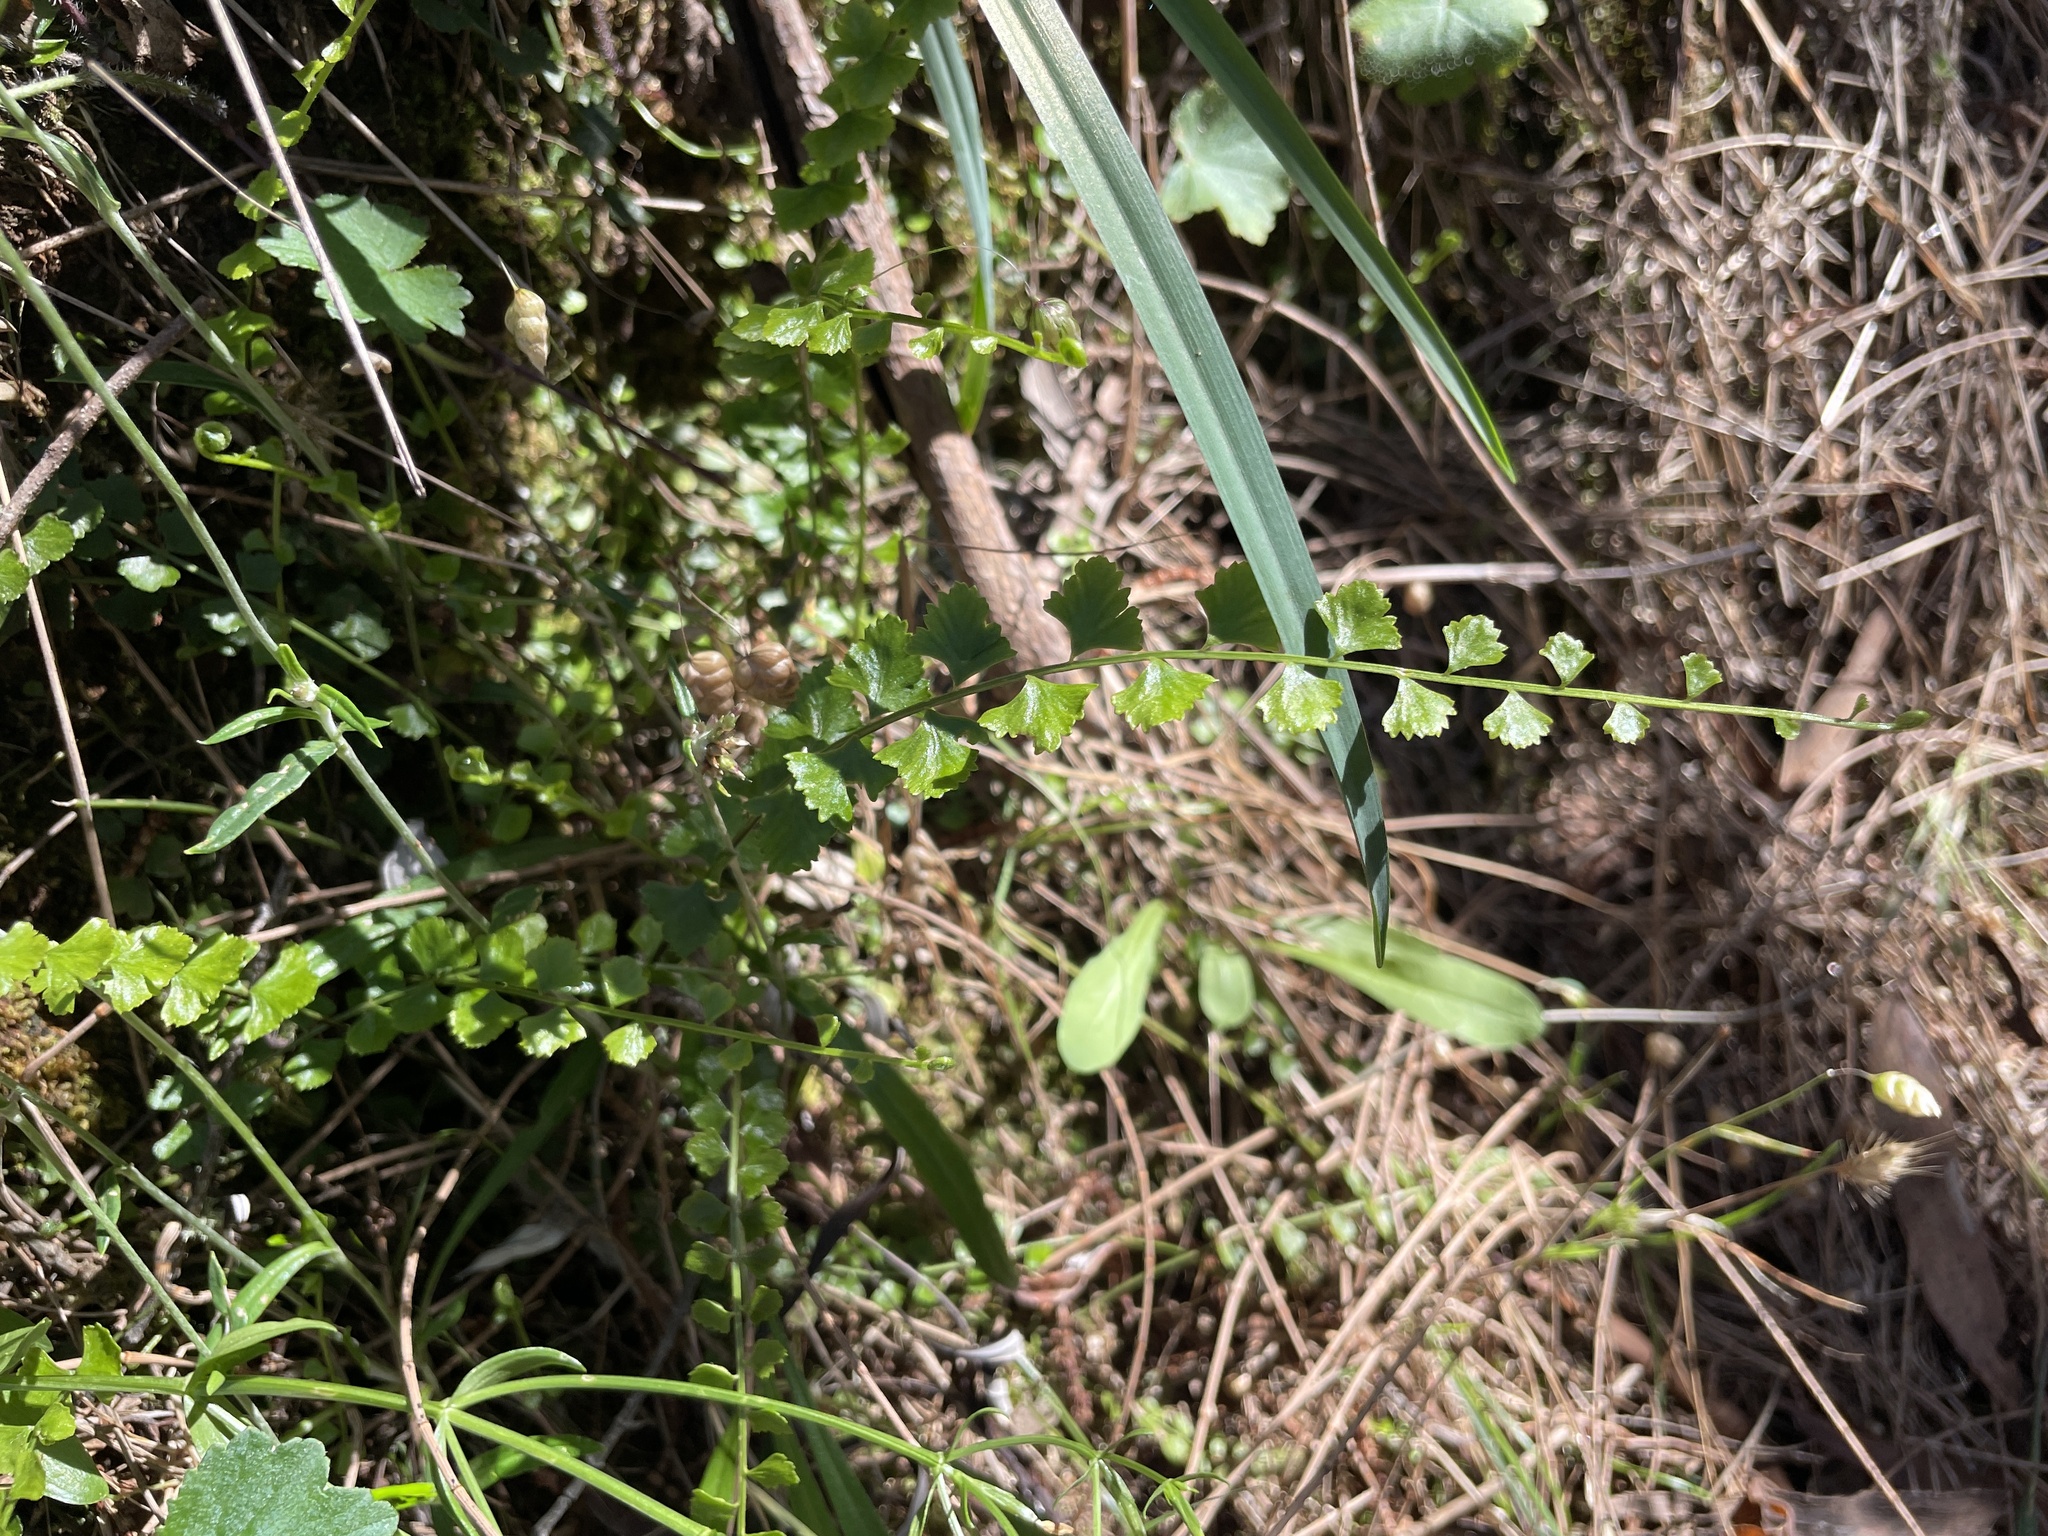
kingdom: Plantae
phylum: Tracheophyta
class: Polypodiopsida
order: Polypodiales
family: Aspleniaceae
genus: Asplenium
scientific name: Asplenium flabellifolium
